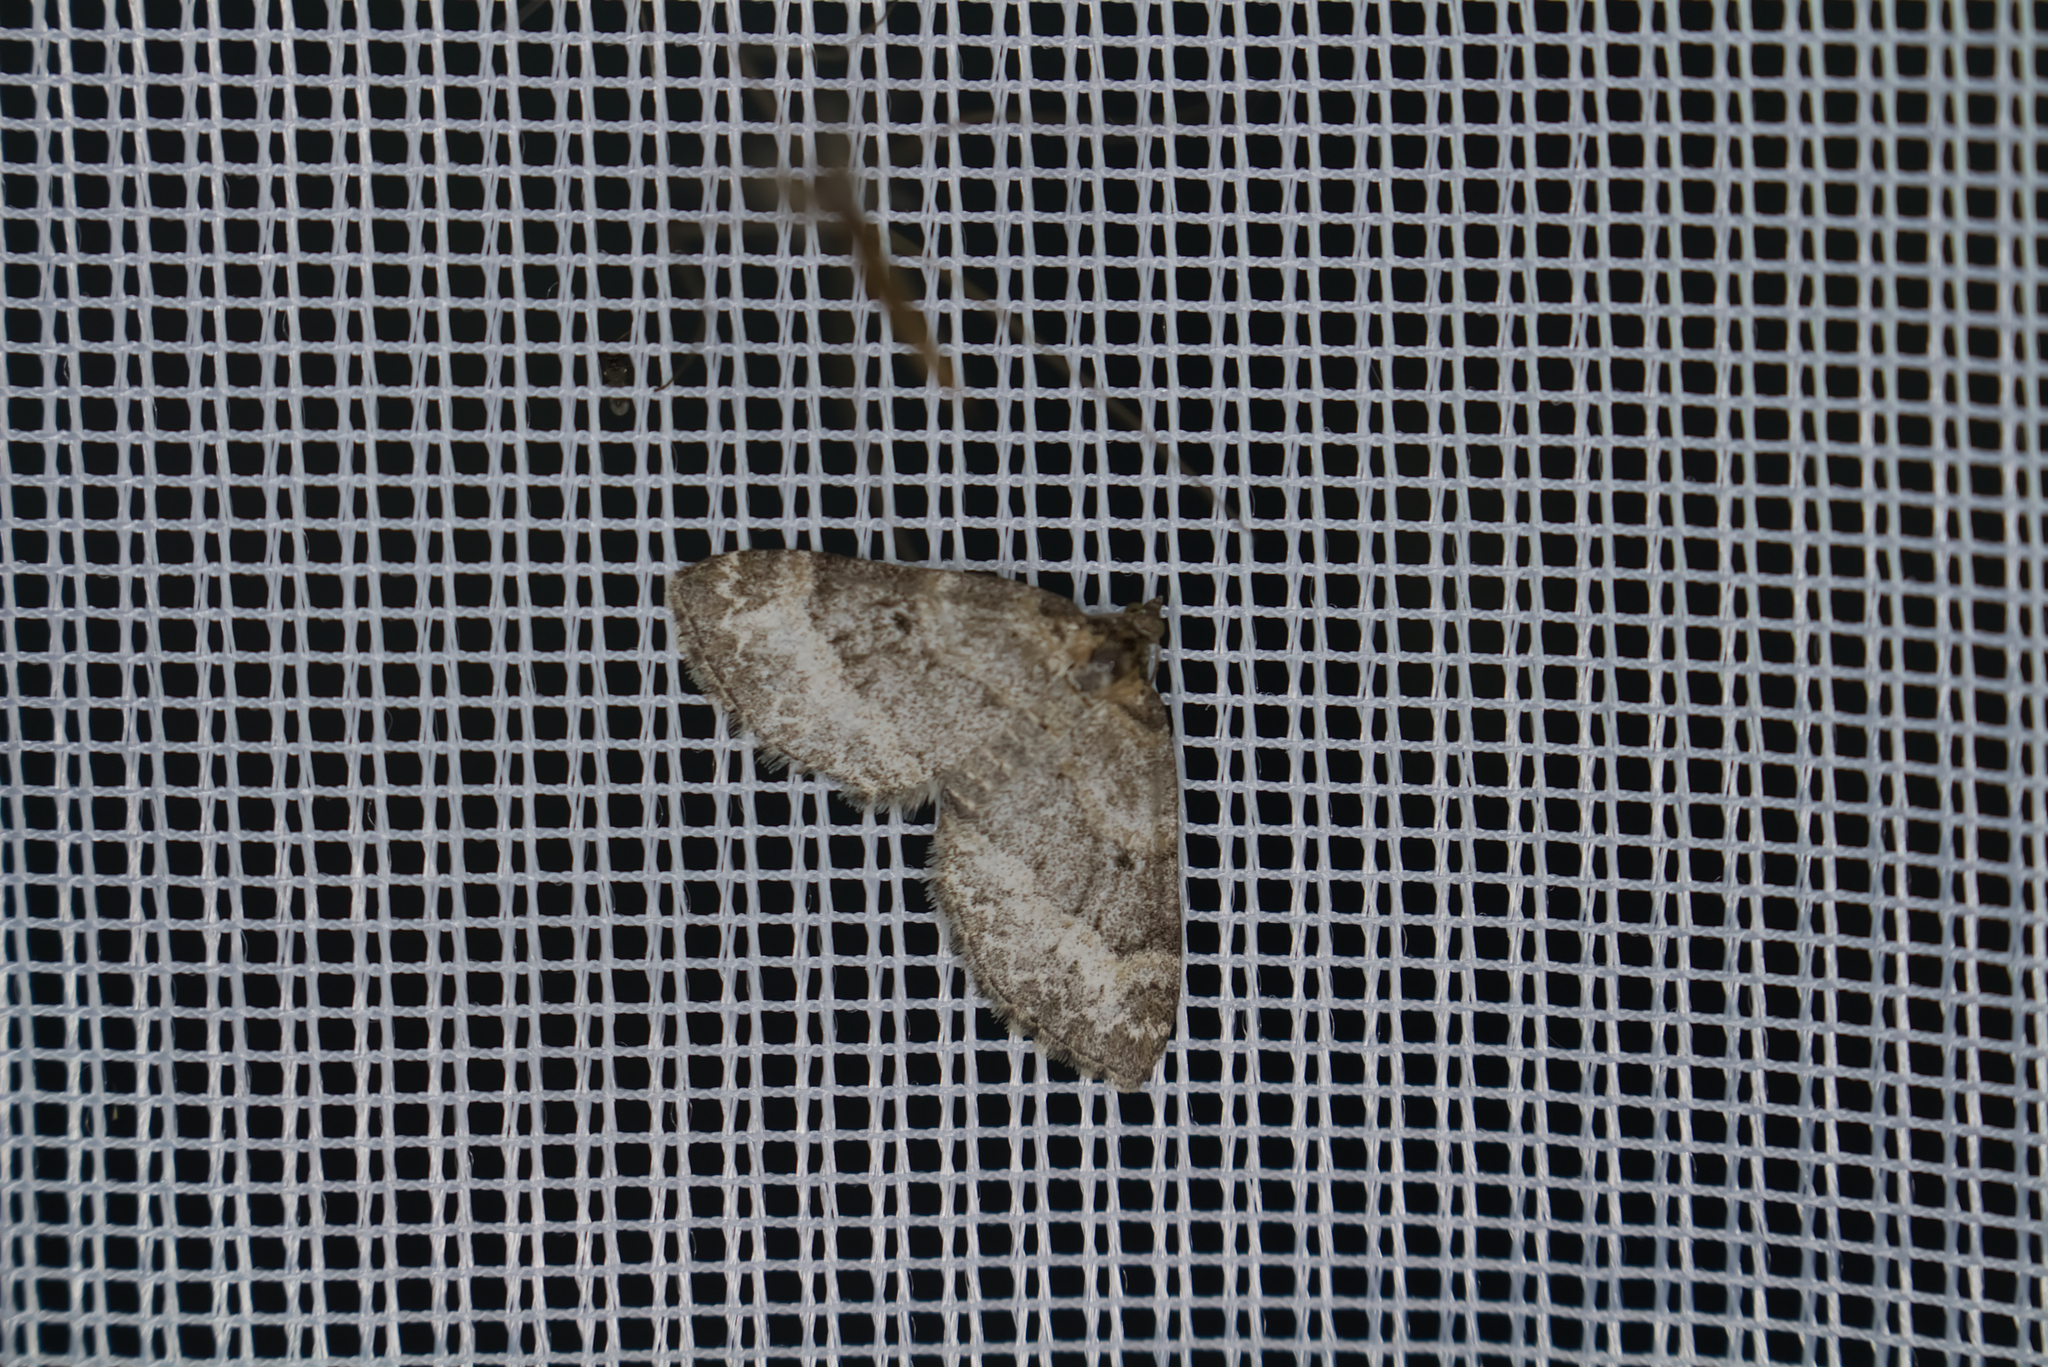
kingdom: Animalia
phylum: Arthropoda
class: Insecta
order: Lepidoptera
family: Geometridae
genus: Pterapherapteryx
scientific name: Pterapherapteryx sexalata
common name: Small seraphim
